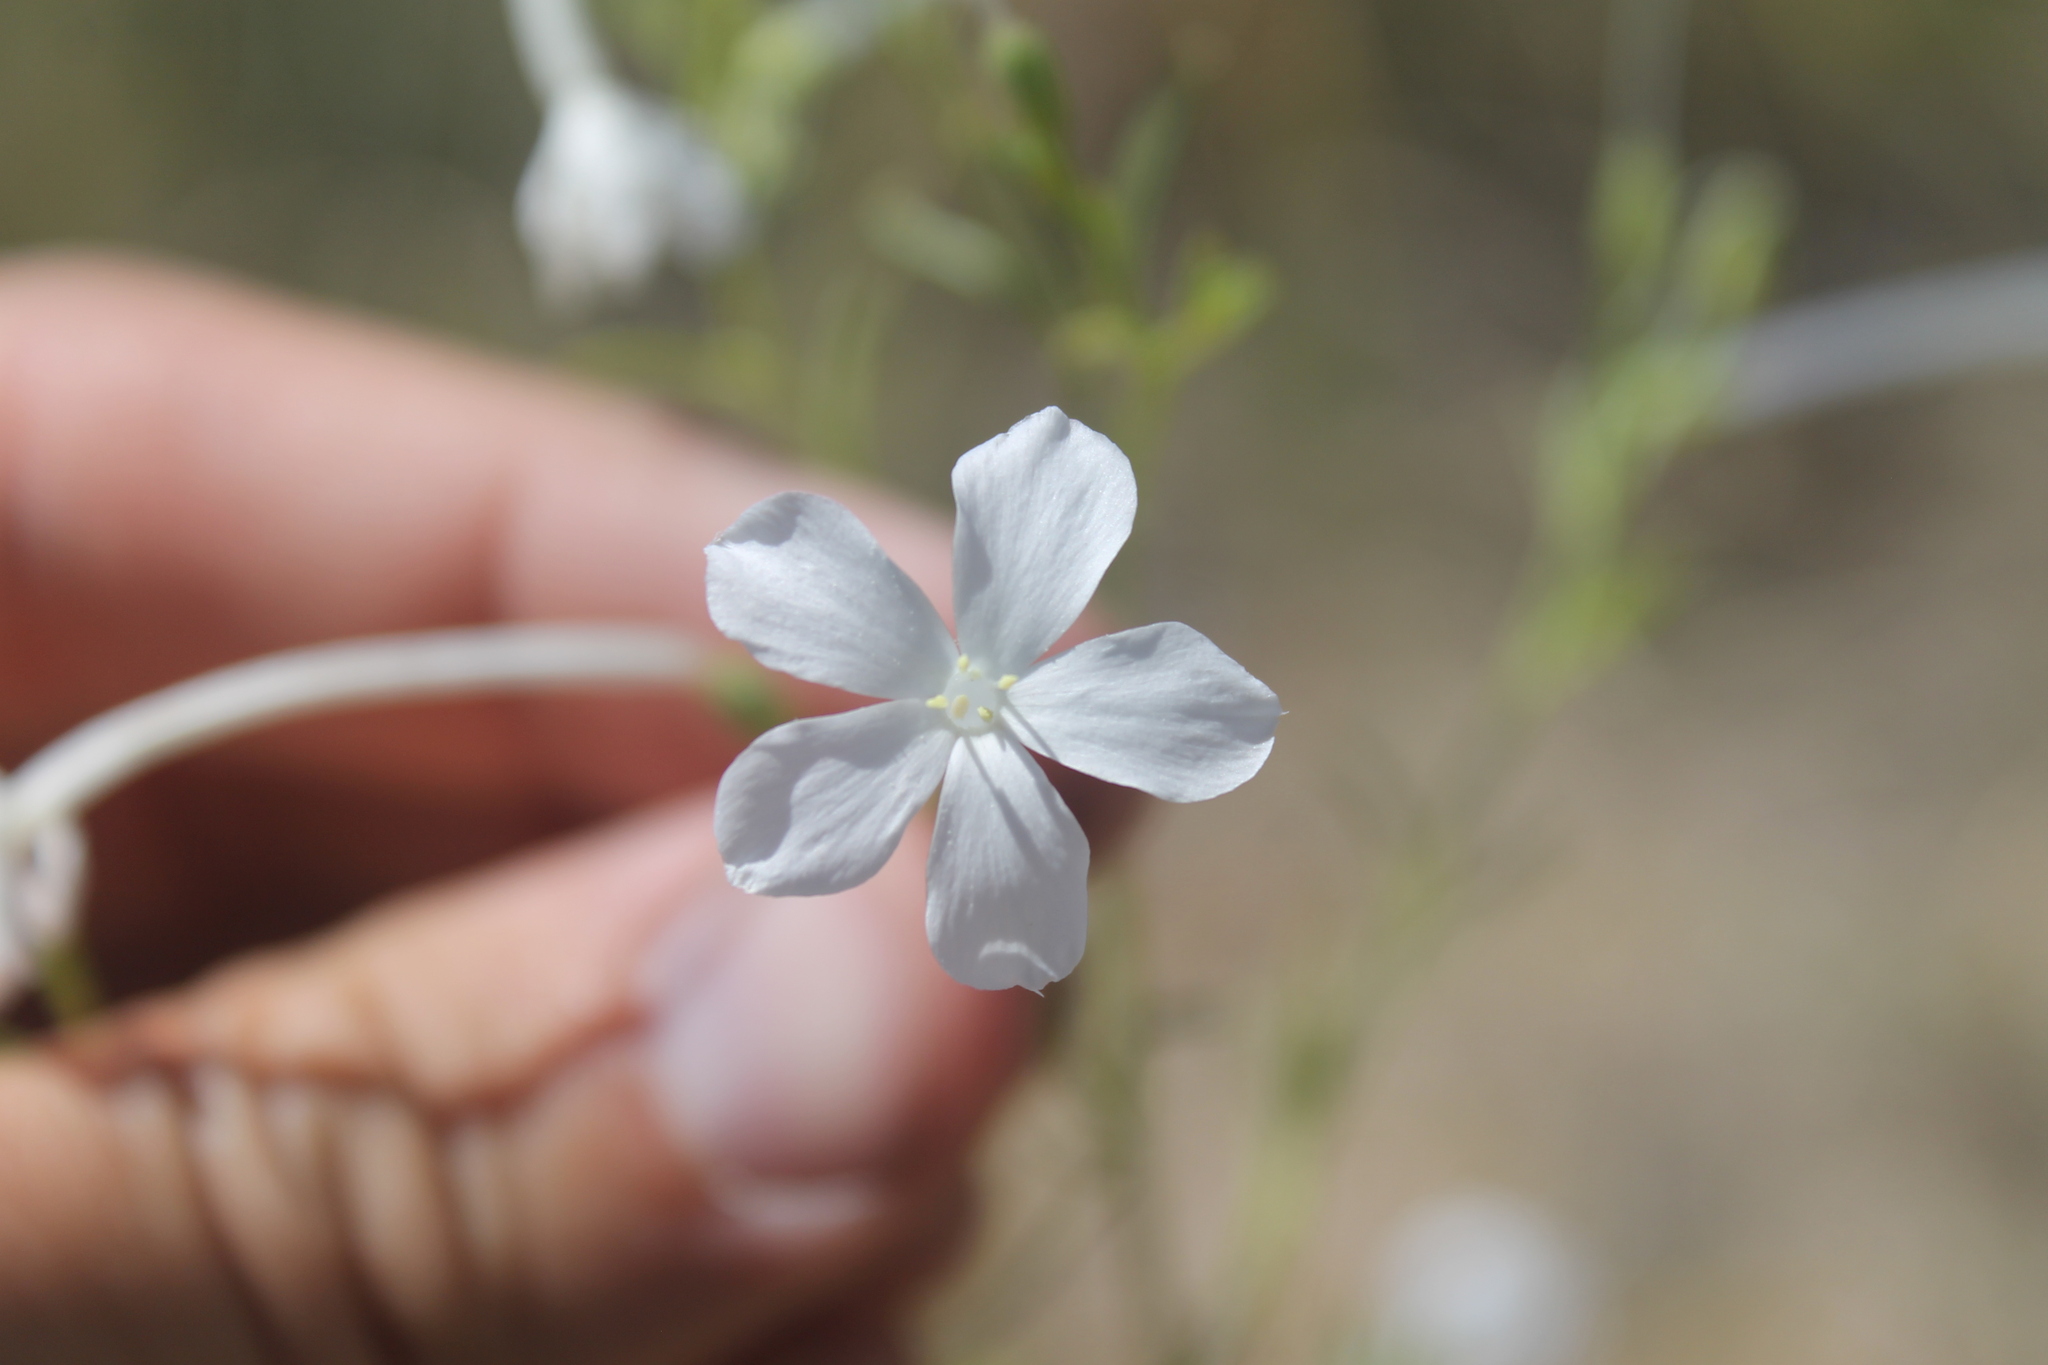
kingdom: Plantae
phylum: Tracheophyta
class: Magnoliopsida
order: Ericales
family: Polemoniaceae
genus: Ipomopsis
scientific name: Ipomopsis longiflora
